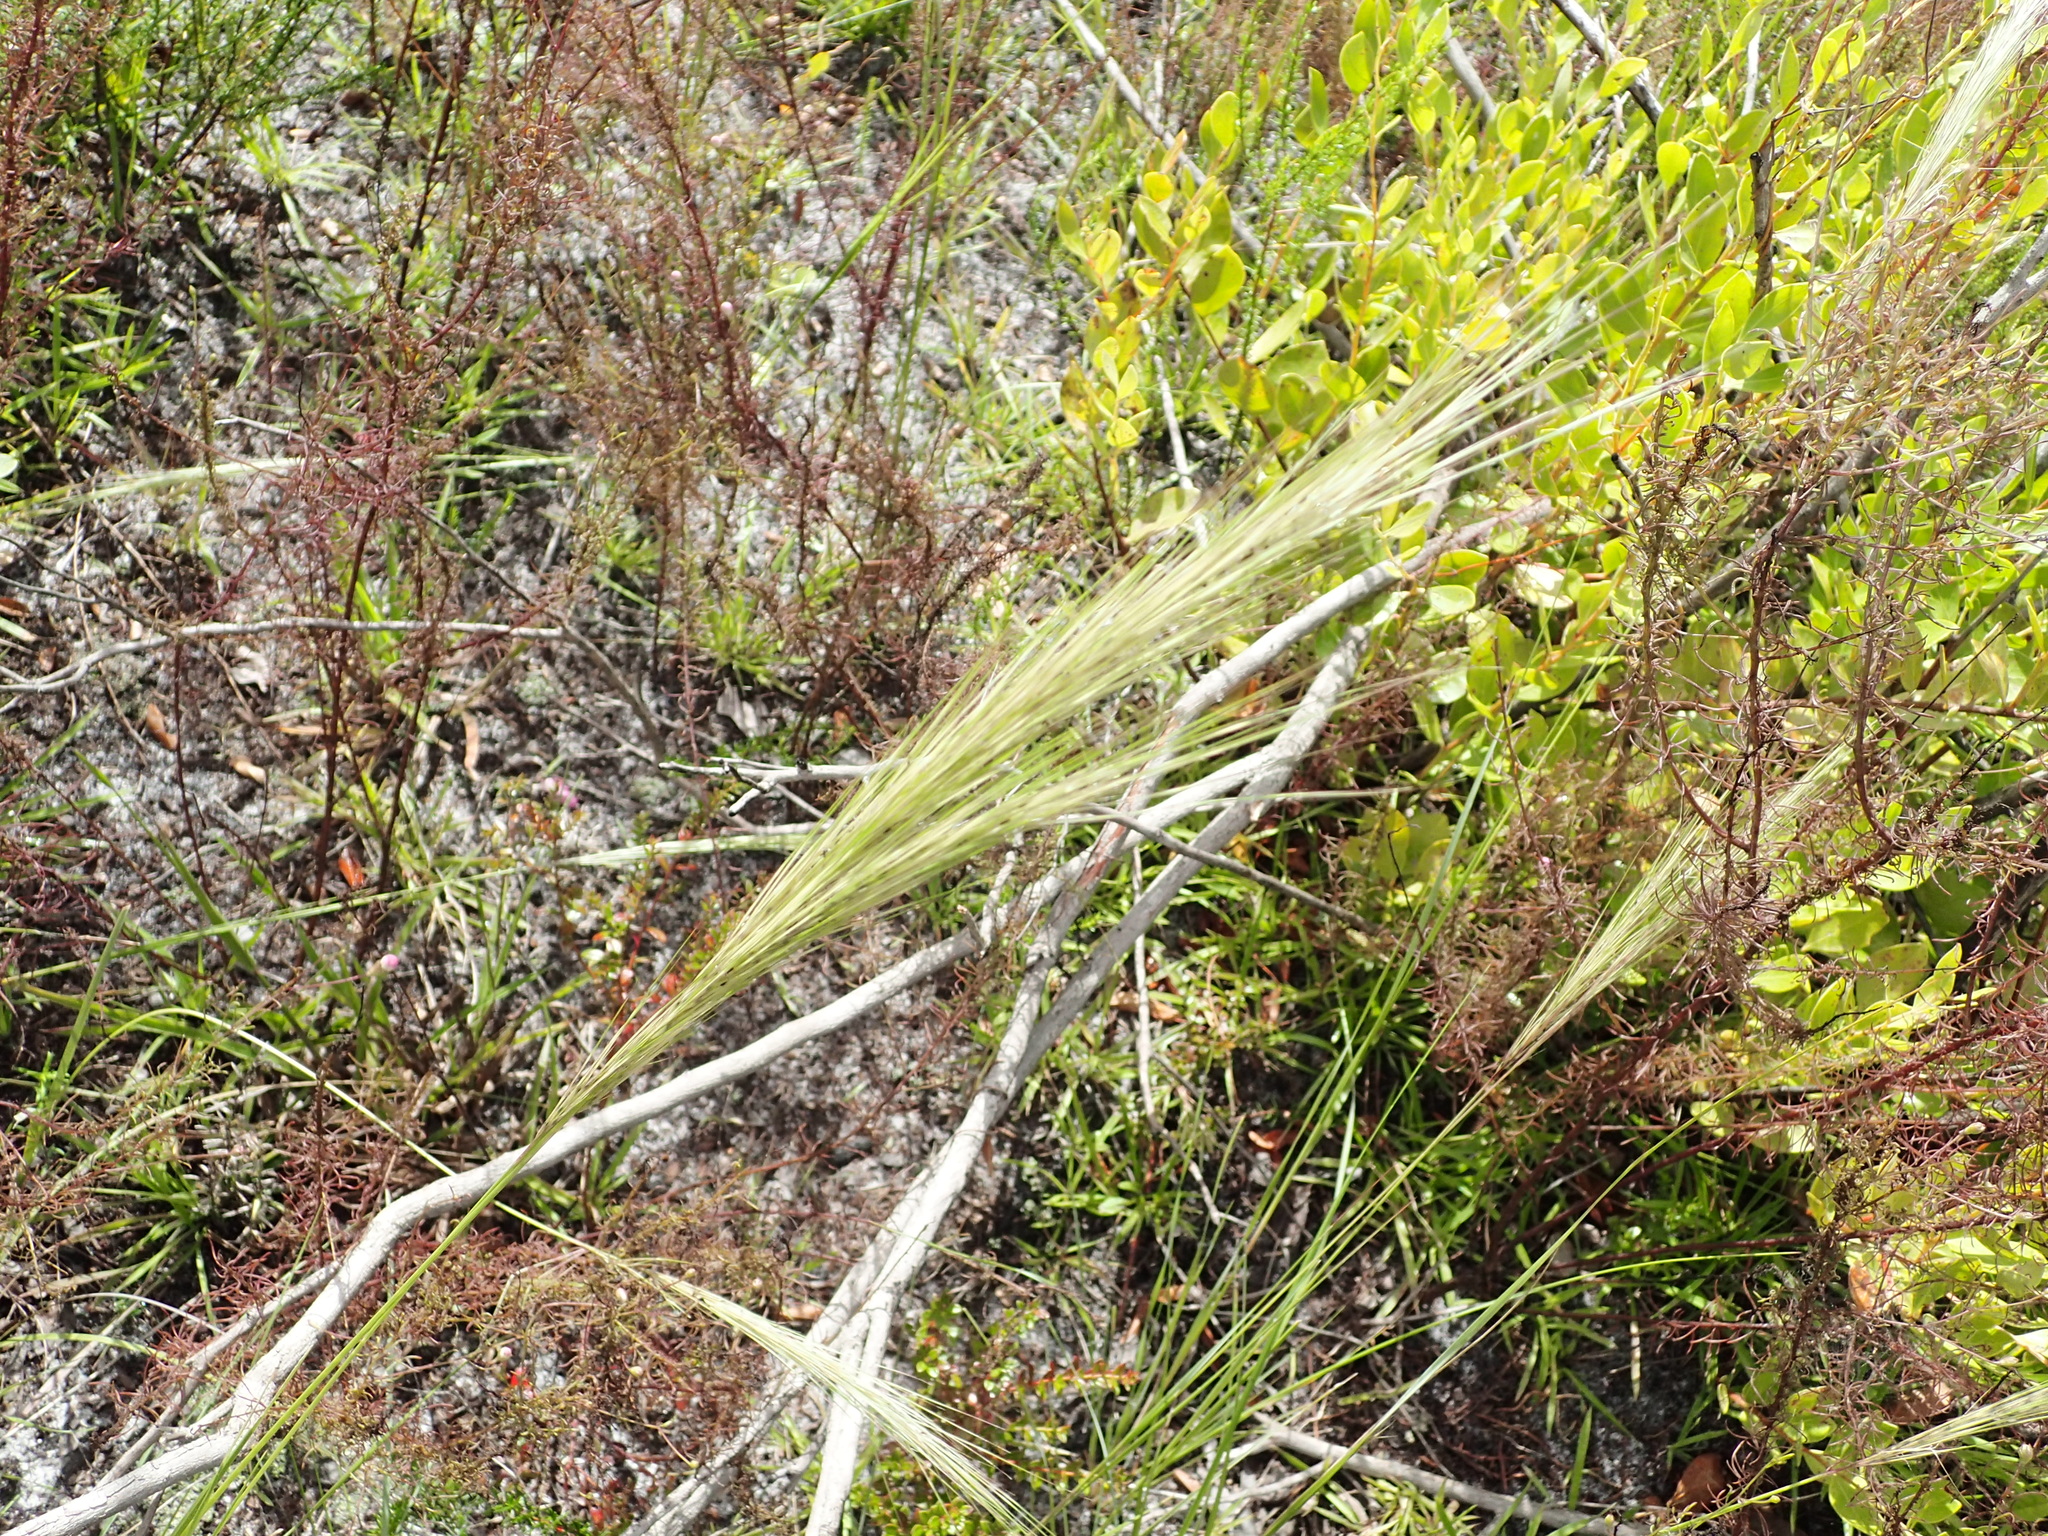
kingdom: Plantae
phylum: Tracheophyta
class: Liliopsida
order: Poales
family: Poaceae
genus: Aristida
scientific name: Aristida spiciformis
